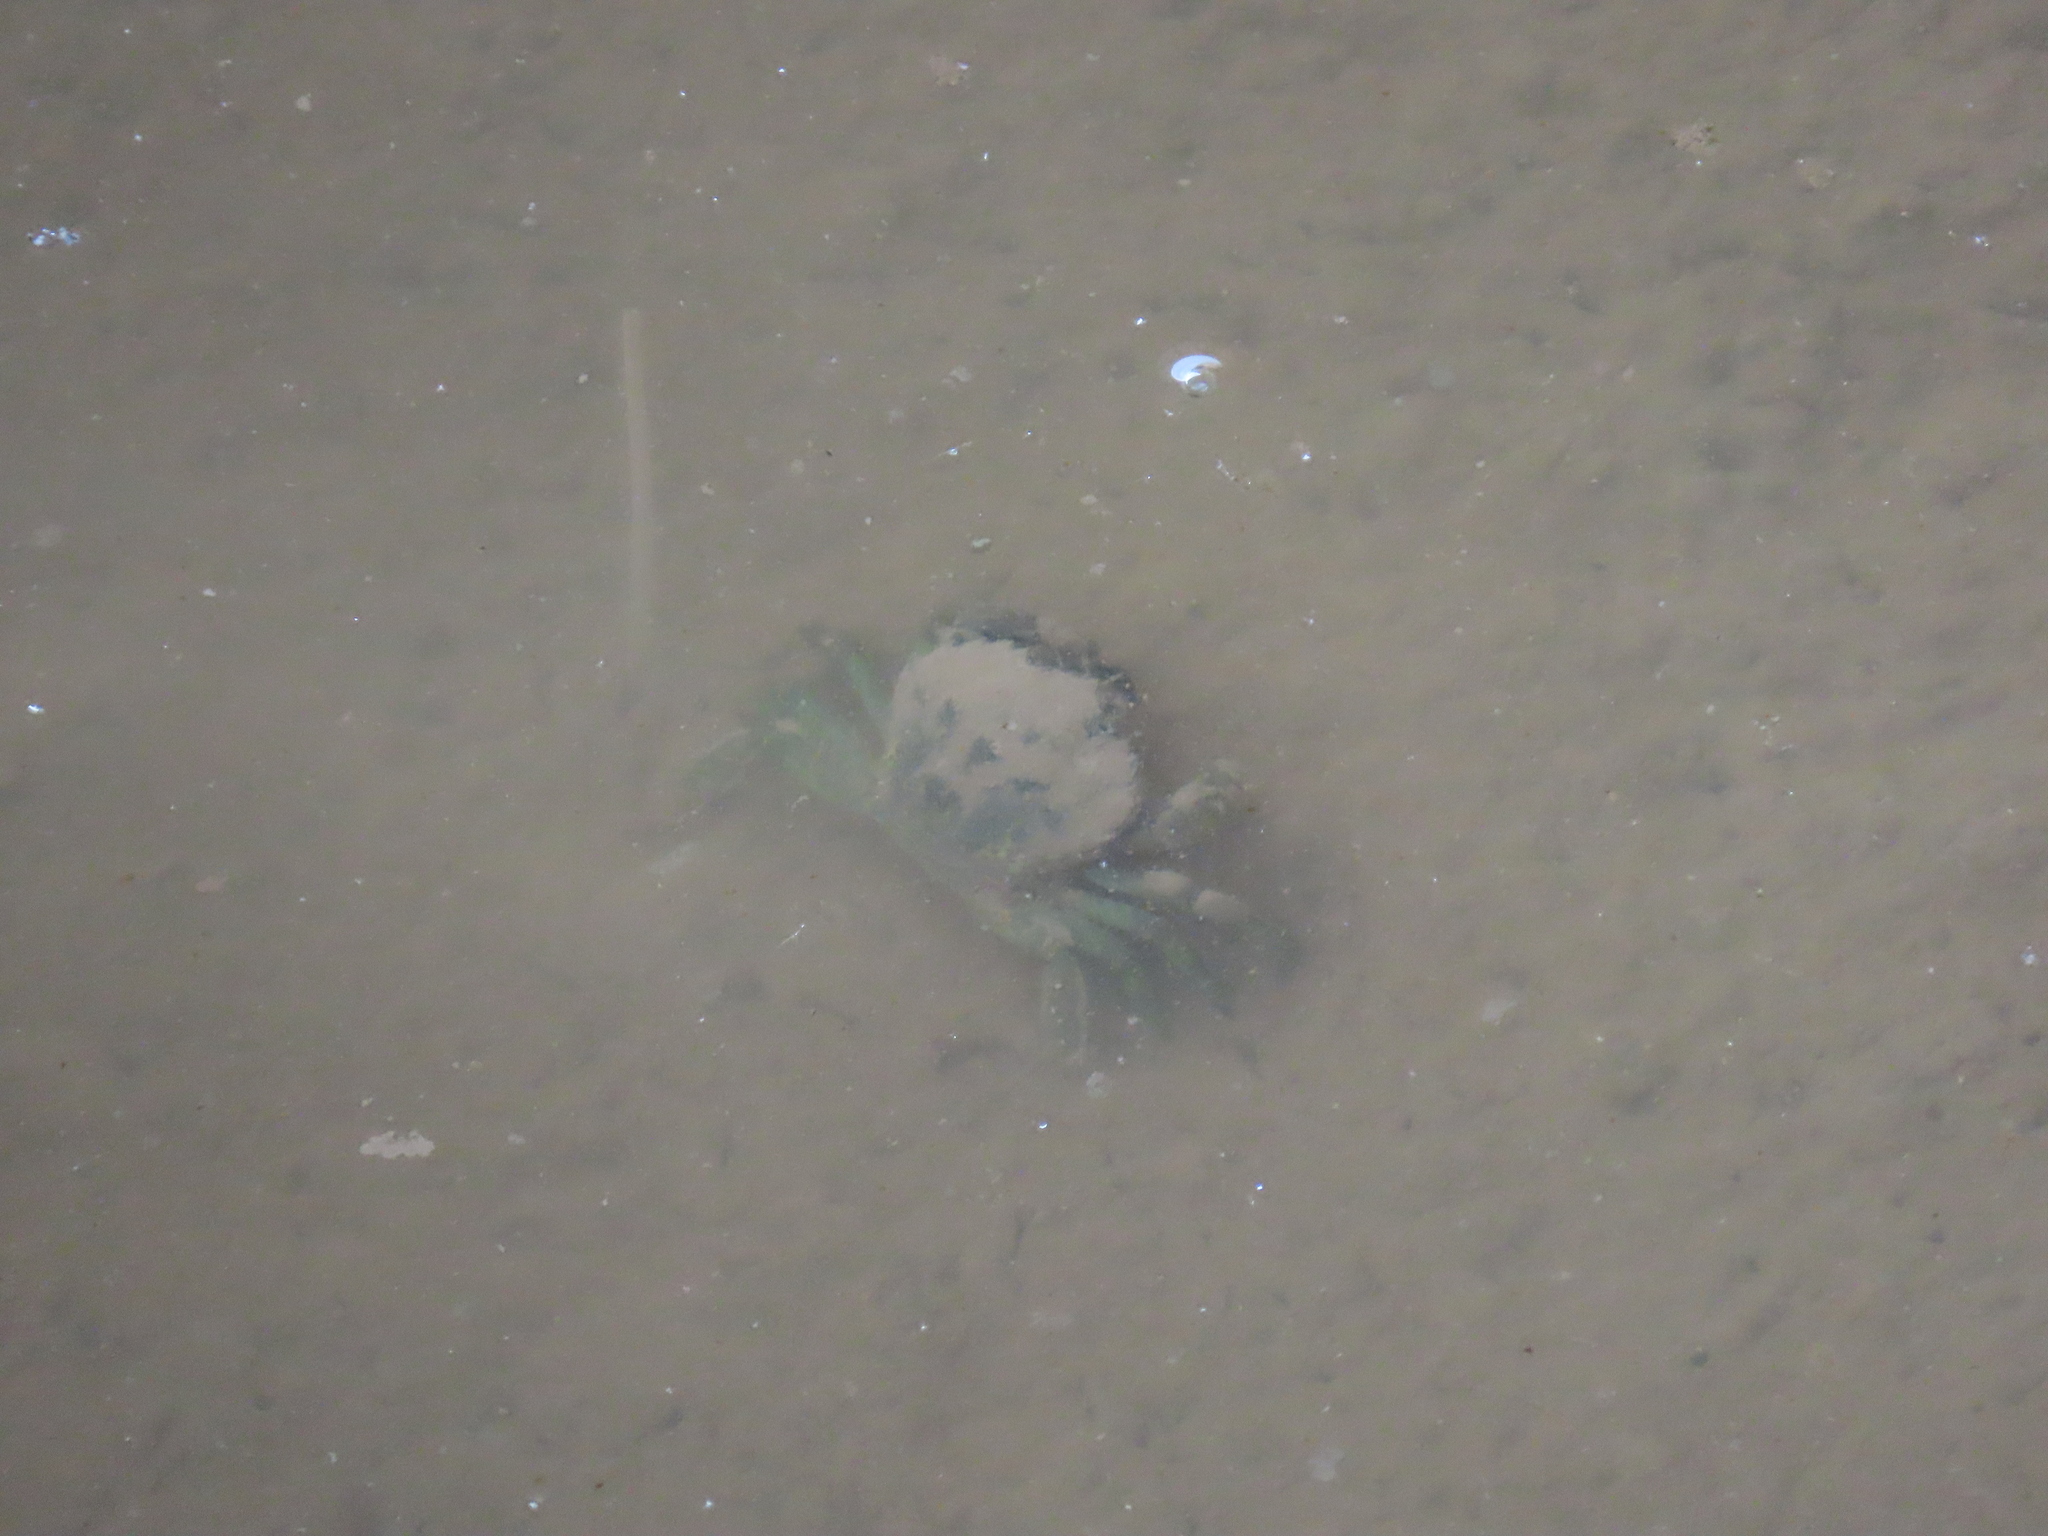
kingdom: Animalia
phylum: Arthropoda
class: Malacostraca
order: Decapoda
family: Carcinidae
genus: Carcinus
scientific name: Carcinus maenas
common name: European green crab
